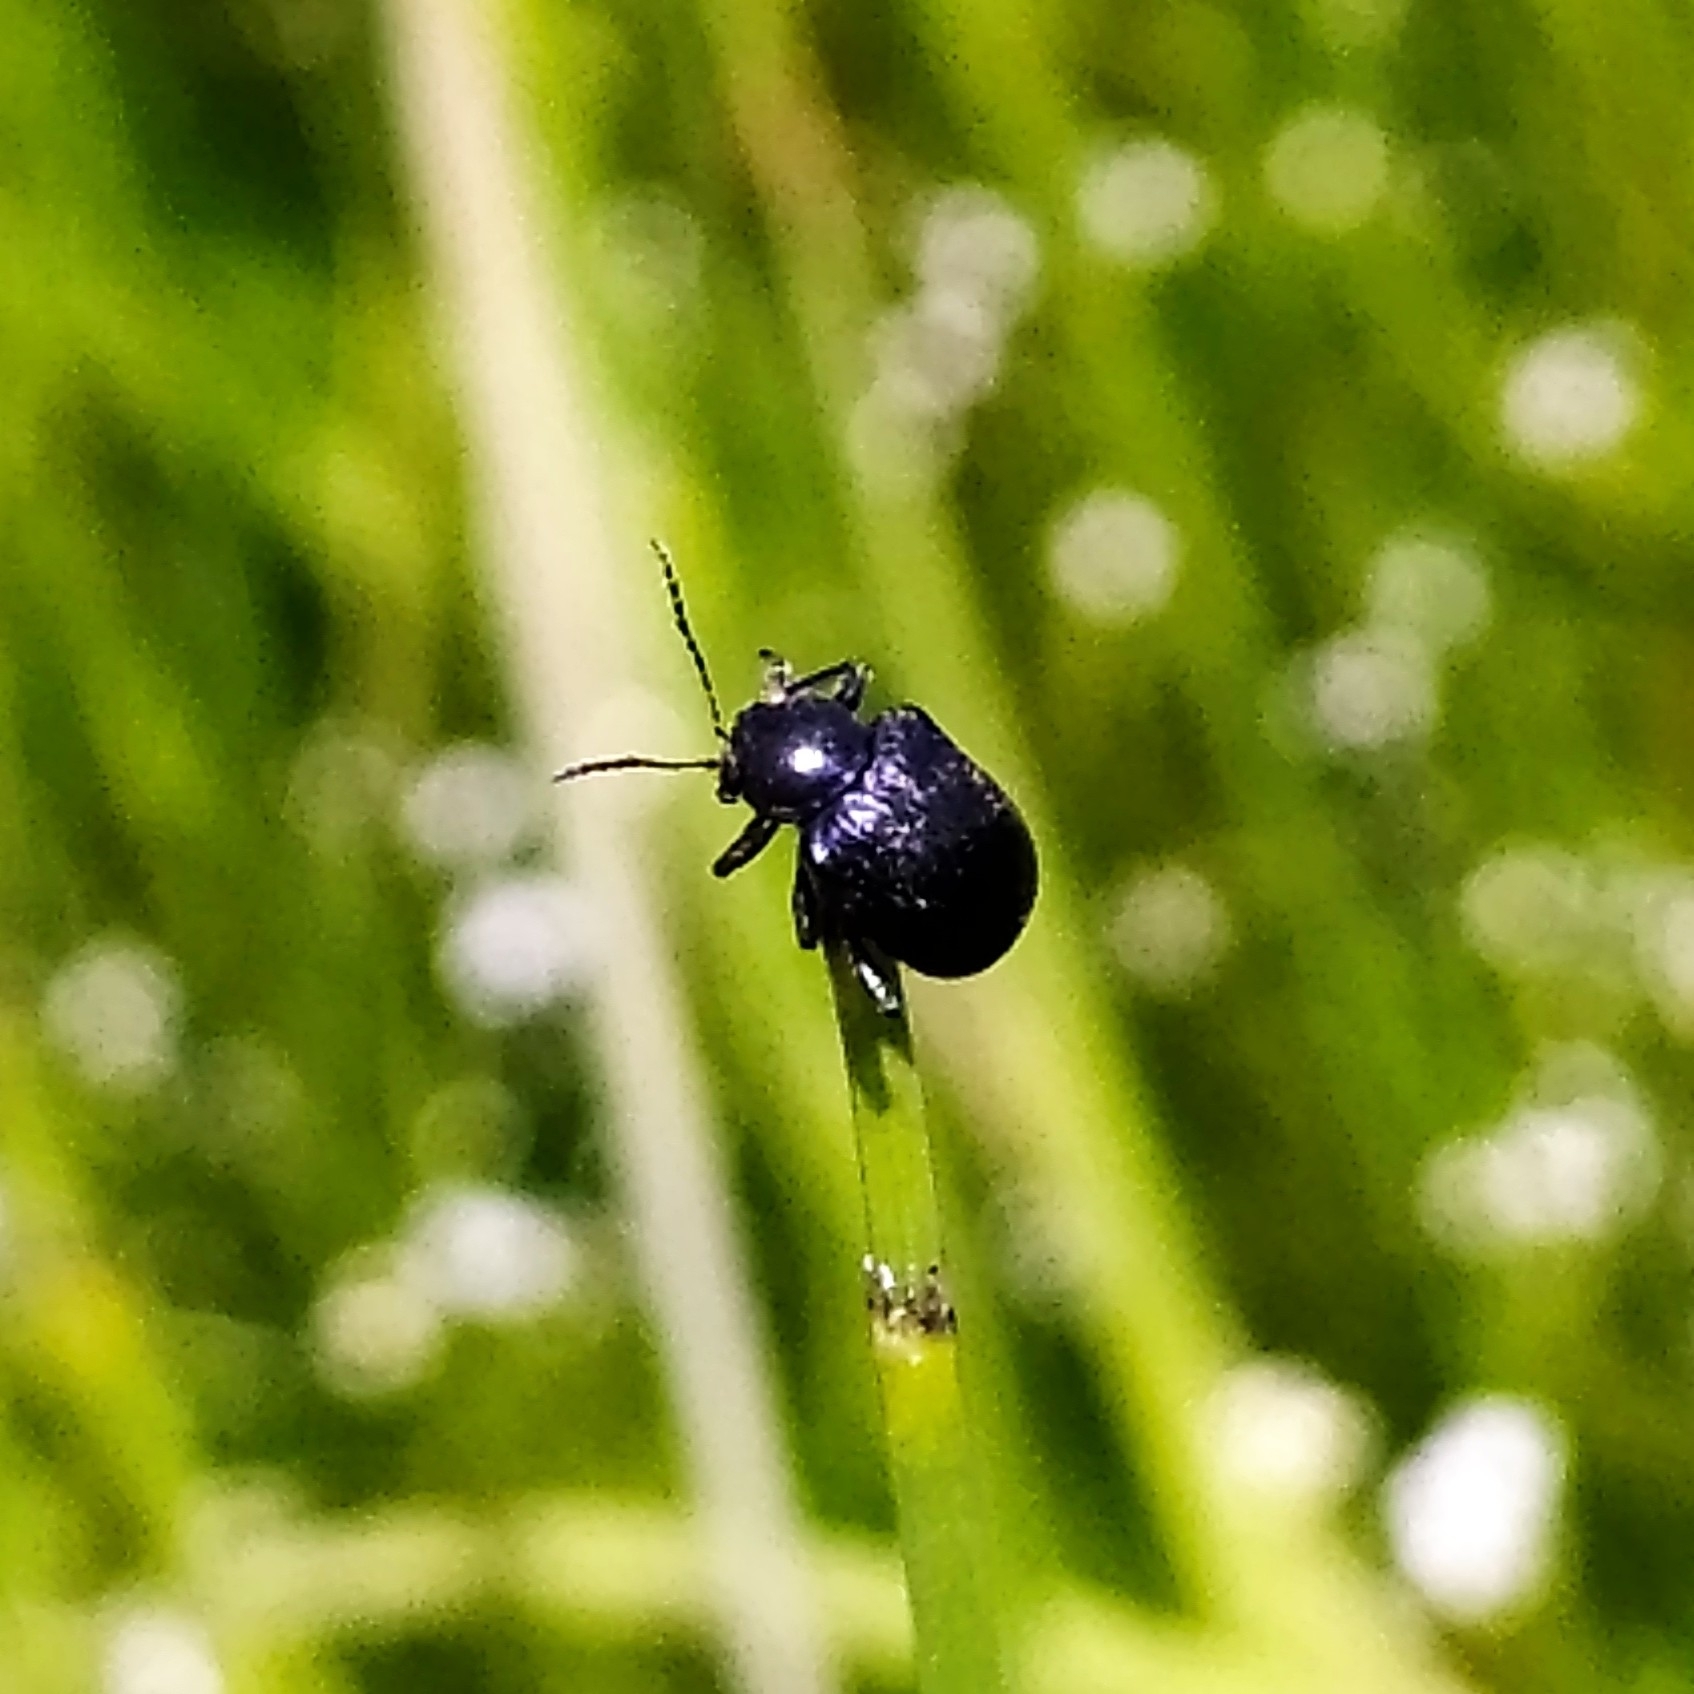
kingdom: Animalia
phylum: Arthropoda
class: Insecta
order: Coleoptera
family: Chrysomelidae
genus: Bromius
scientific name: Bromius obscurus
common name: Western grape rootworm
